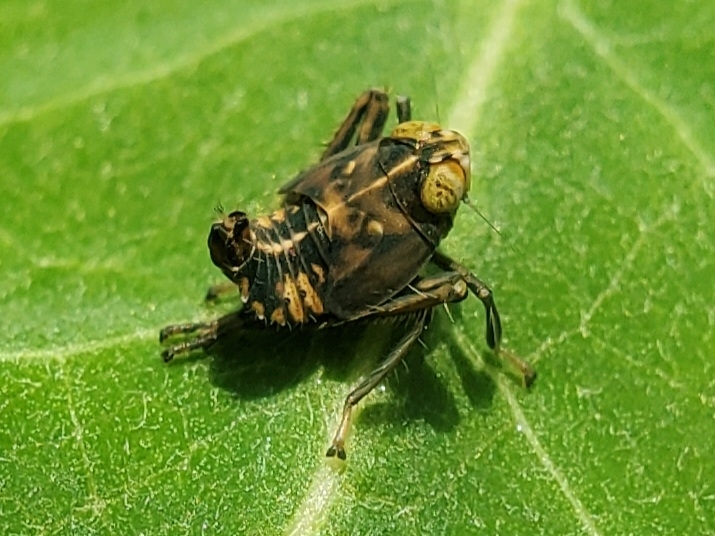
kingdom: Animalia
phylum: Arthropoda
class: Insecta
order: Hemiptera
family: Cicadellidae
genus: Jikradia
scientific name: Jikradia olitoria
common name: Coppery leafhopper
